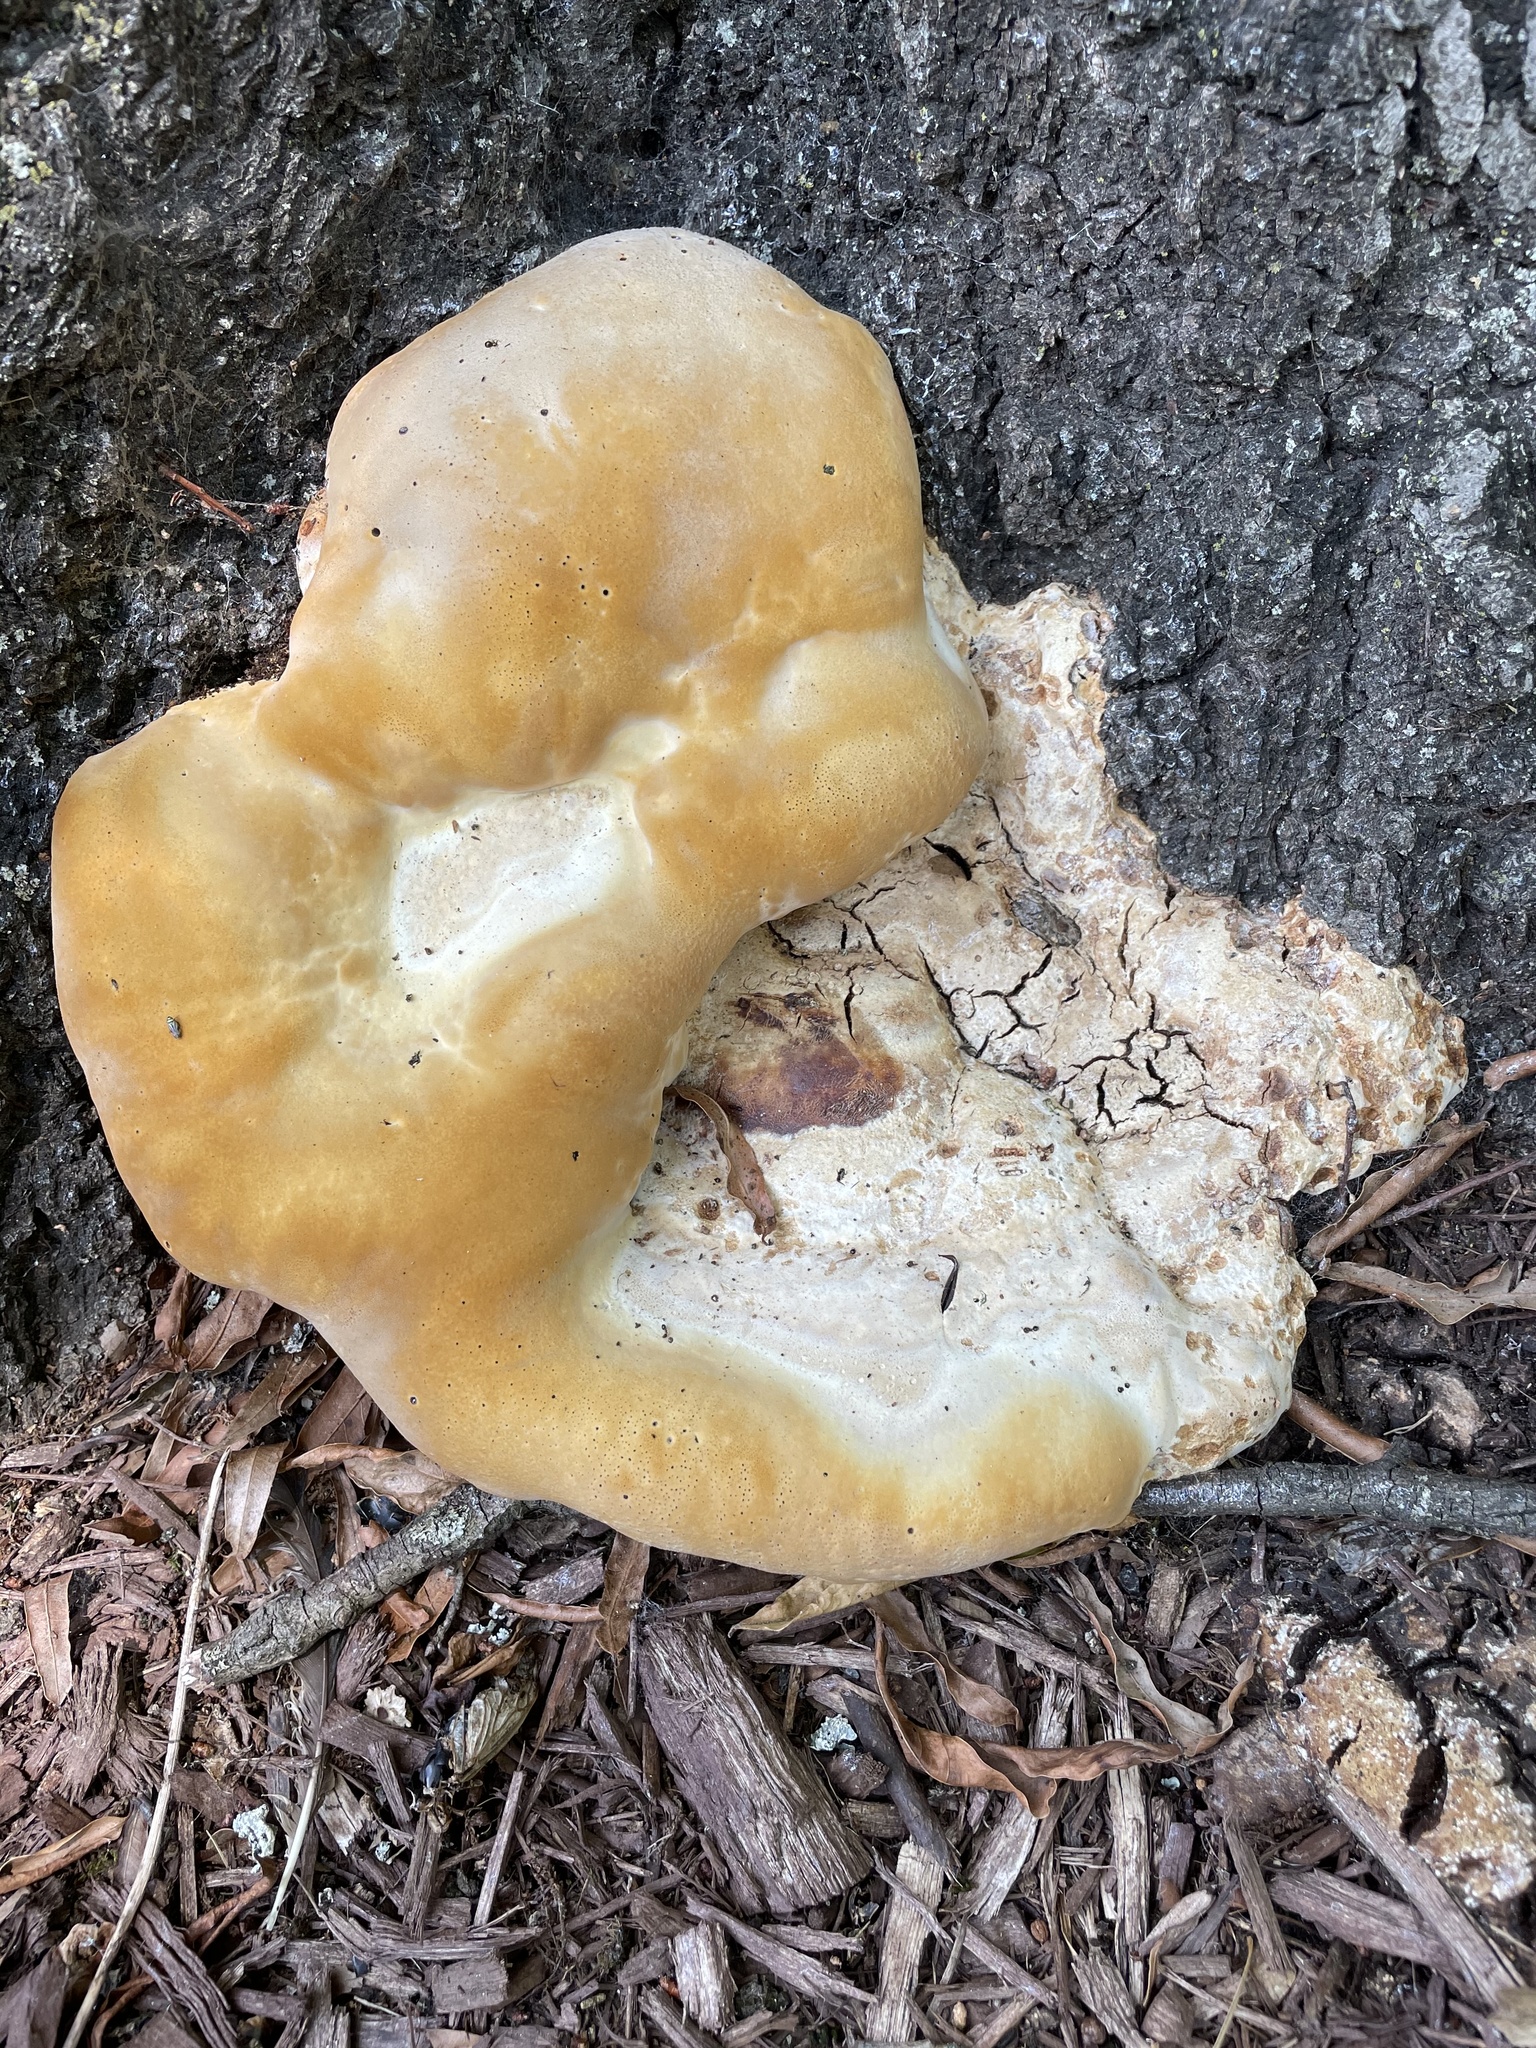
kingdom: Fungi
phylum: Basidiomycota
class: Agaricomycetes
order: Hymenochaetales
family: Hymenochaetaceae
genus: Pseudoinonotus
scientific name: Pseudoinonotus dryadeus
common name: Oak bracket
